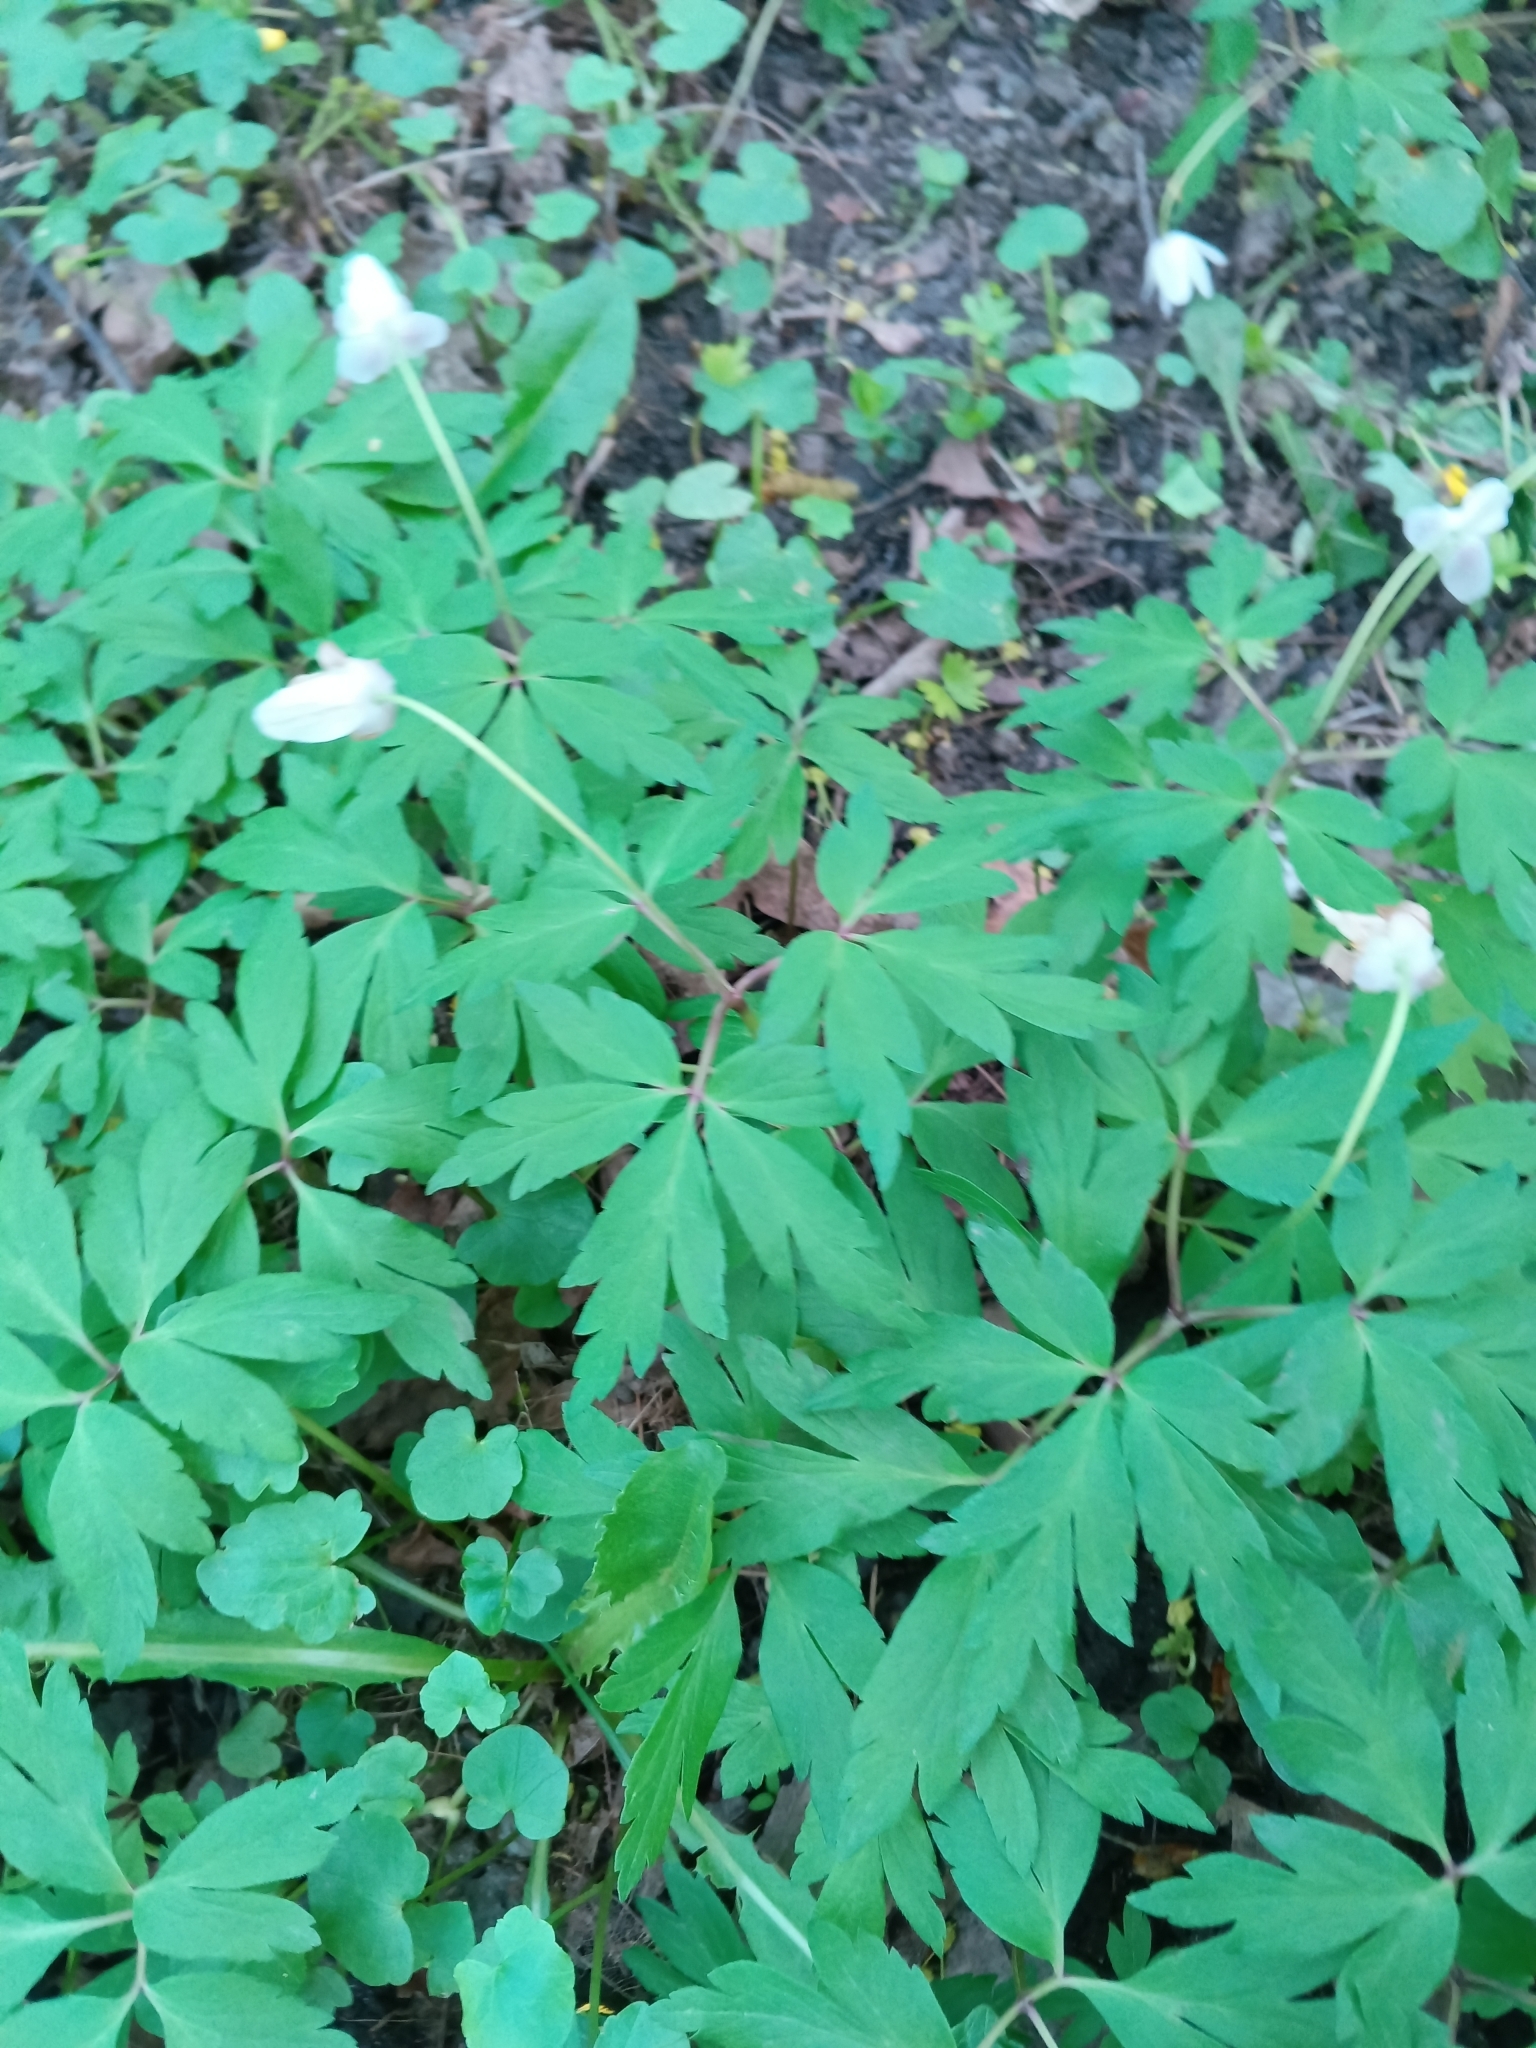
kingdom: Plantae
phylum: Tracheophyta
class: Magnoliopsida
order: Ranunculales
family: Ranunculaceae
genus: Anemone
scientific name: Anemone nemorosa
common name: Wood anemone
